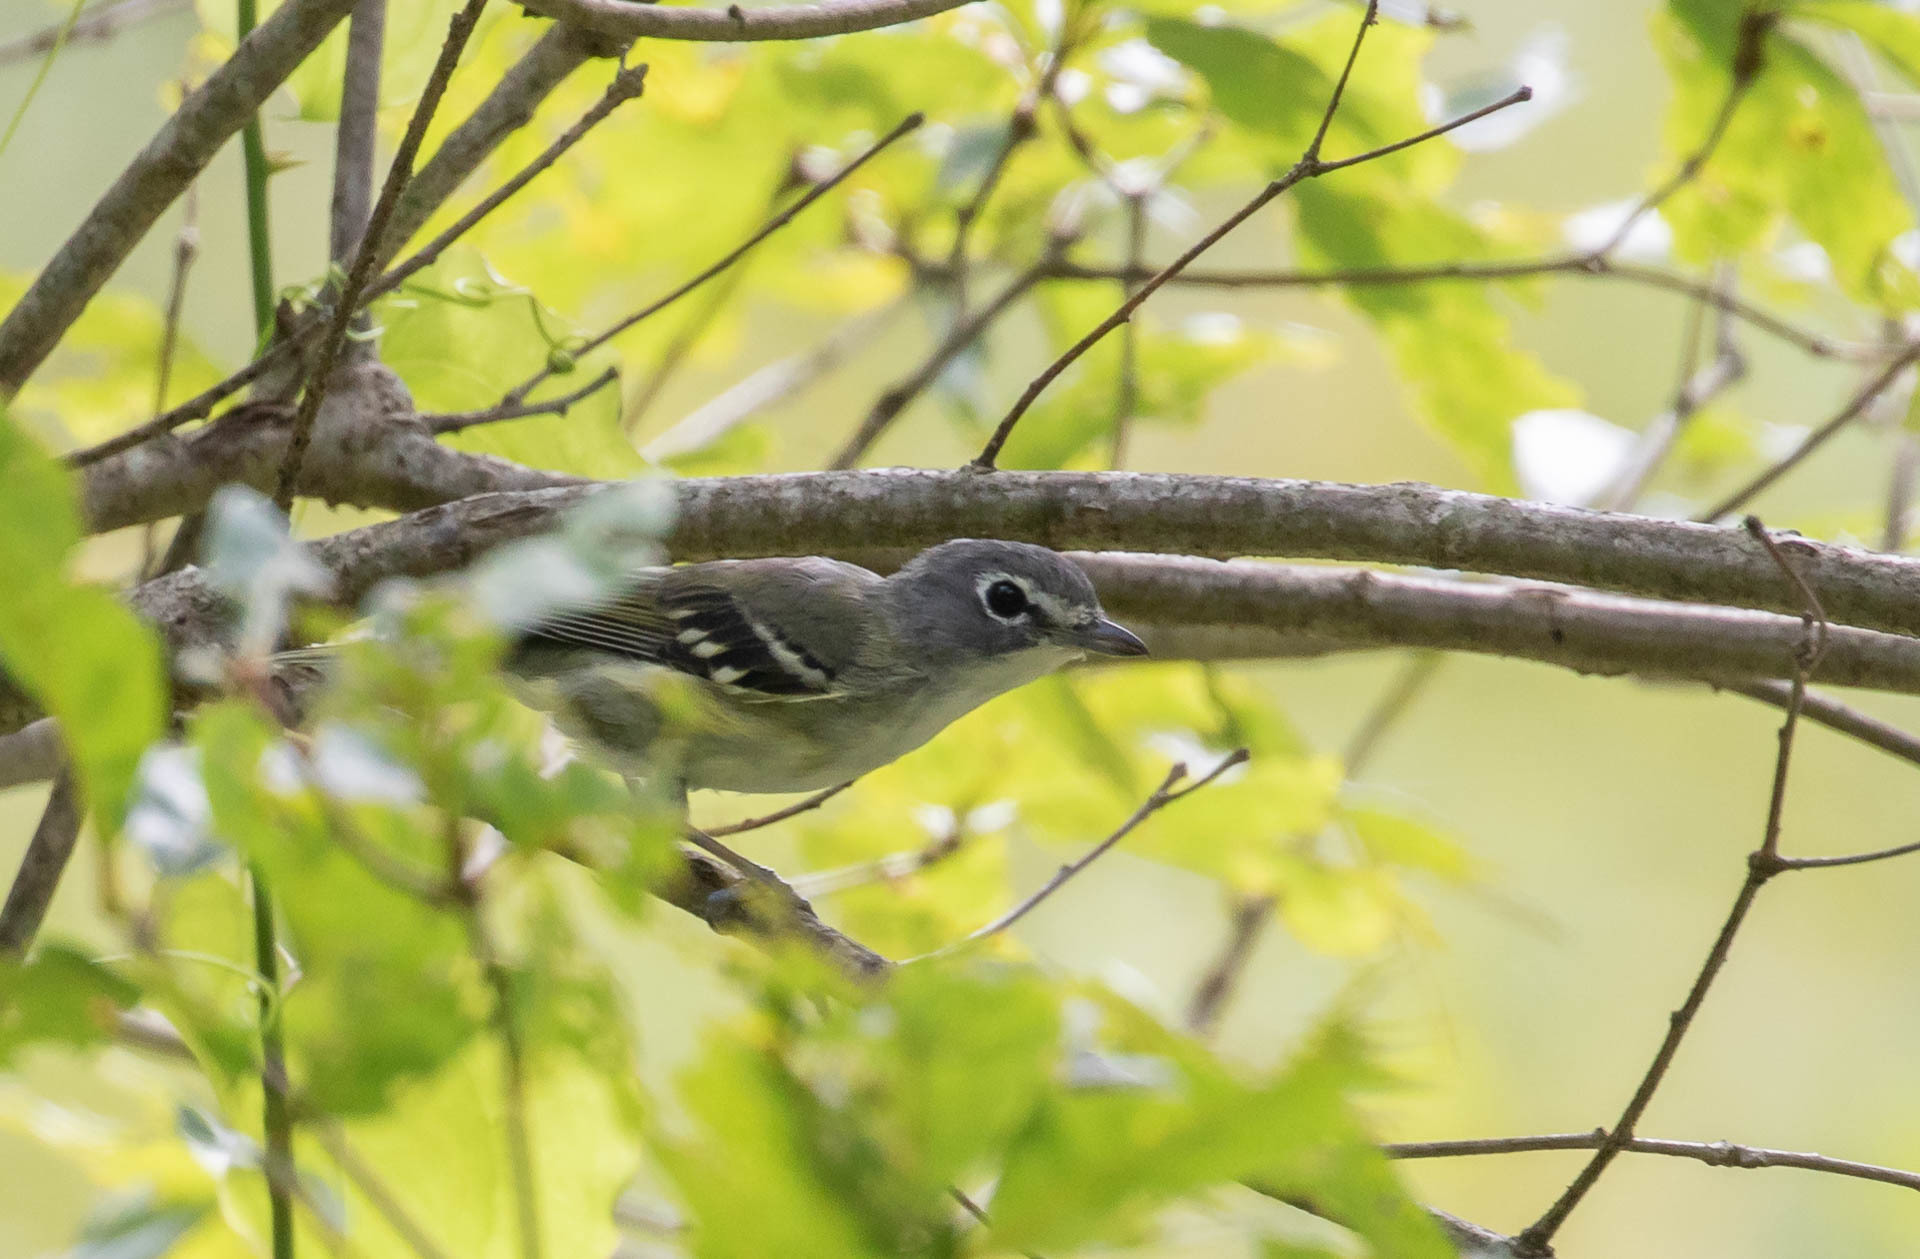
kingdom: Animalia
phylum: Chordata
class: Aves
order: Passeriformes
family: Vireonidae
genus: Vireo
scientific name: Vireo solitarius
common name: Blue-headed vireo
